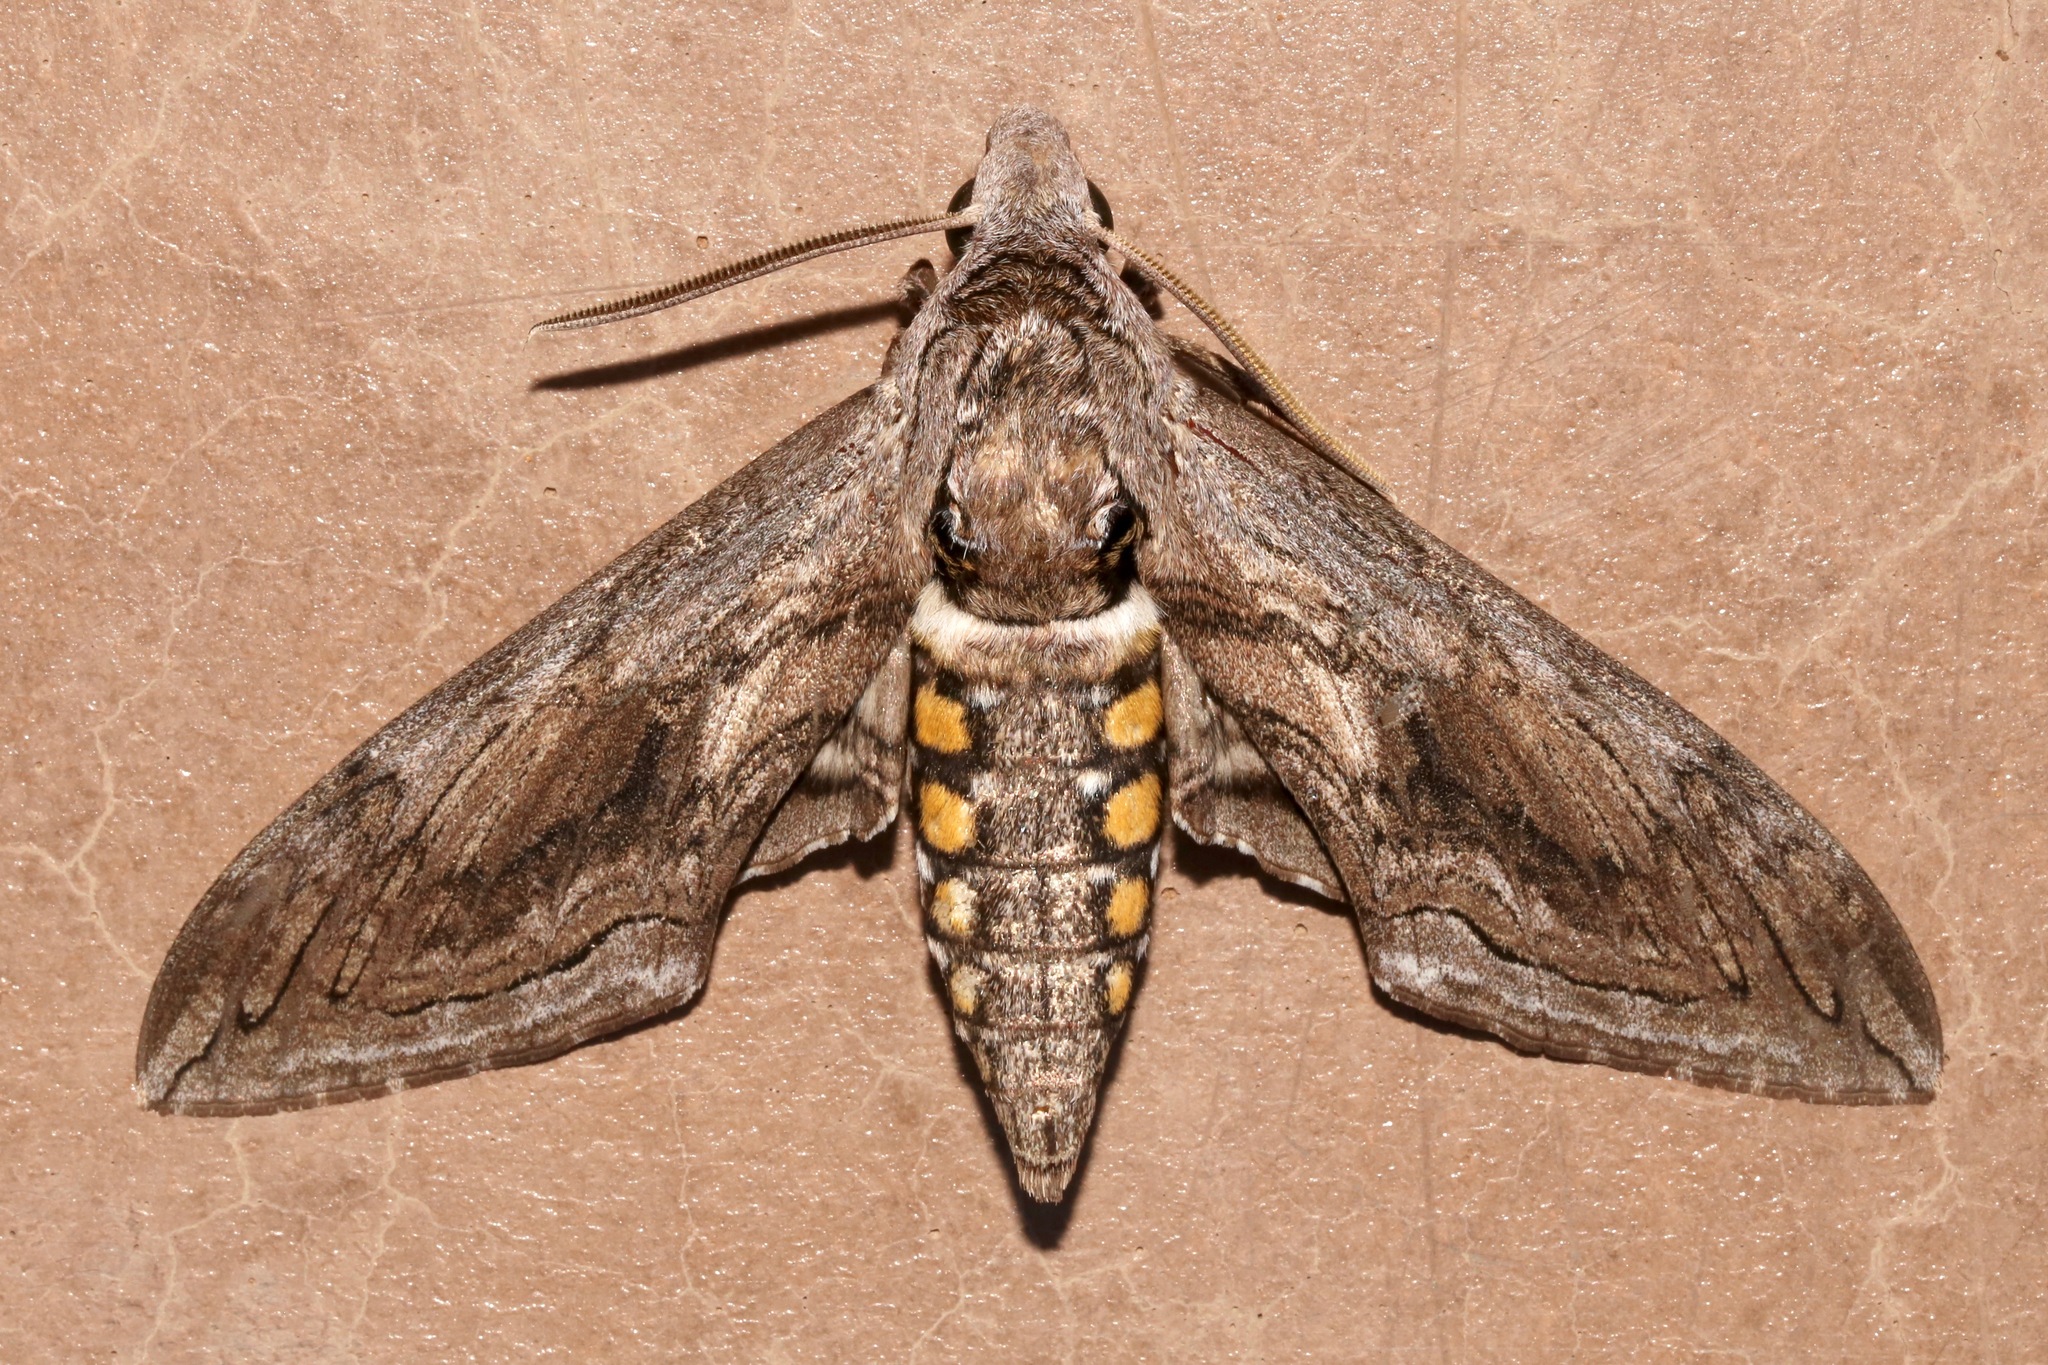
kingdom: Animalia
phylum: Arthropoda
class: Insecta
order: Lepidoptera
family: Sphingidae
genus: Manduca
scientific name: Manduca quinquemaculatus
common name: Five-spotted hawk-moth
